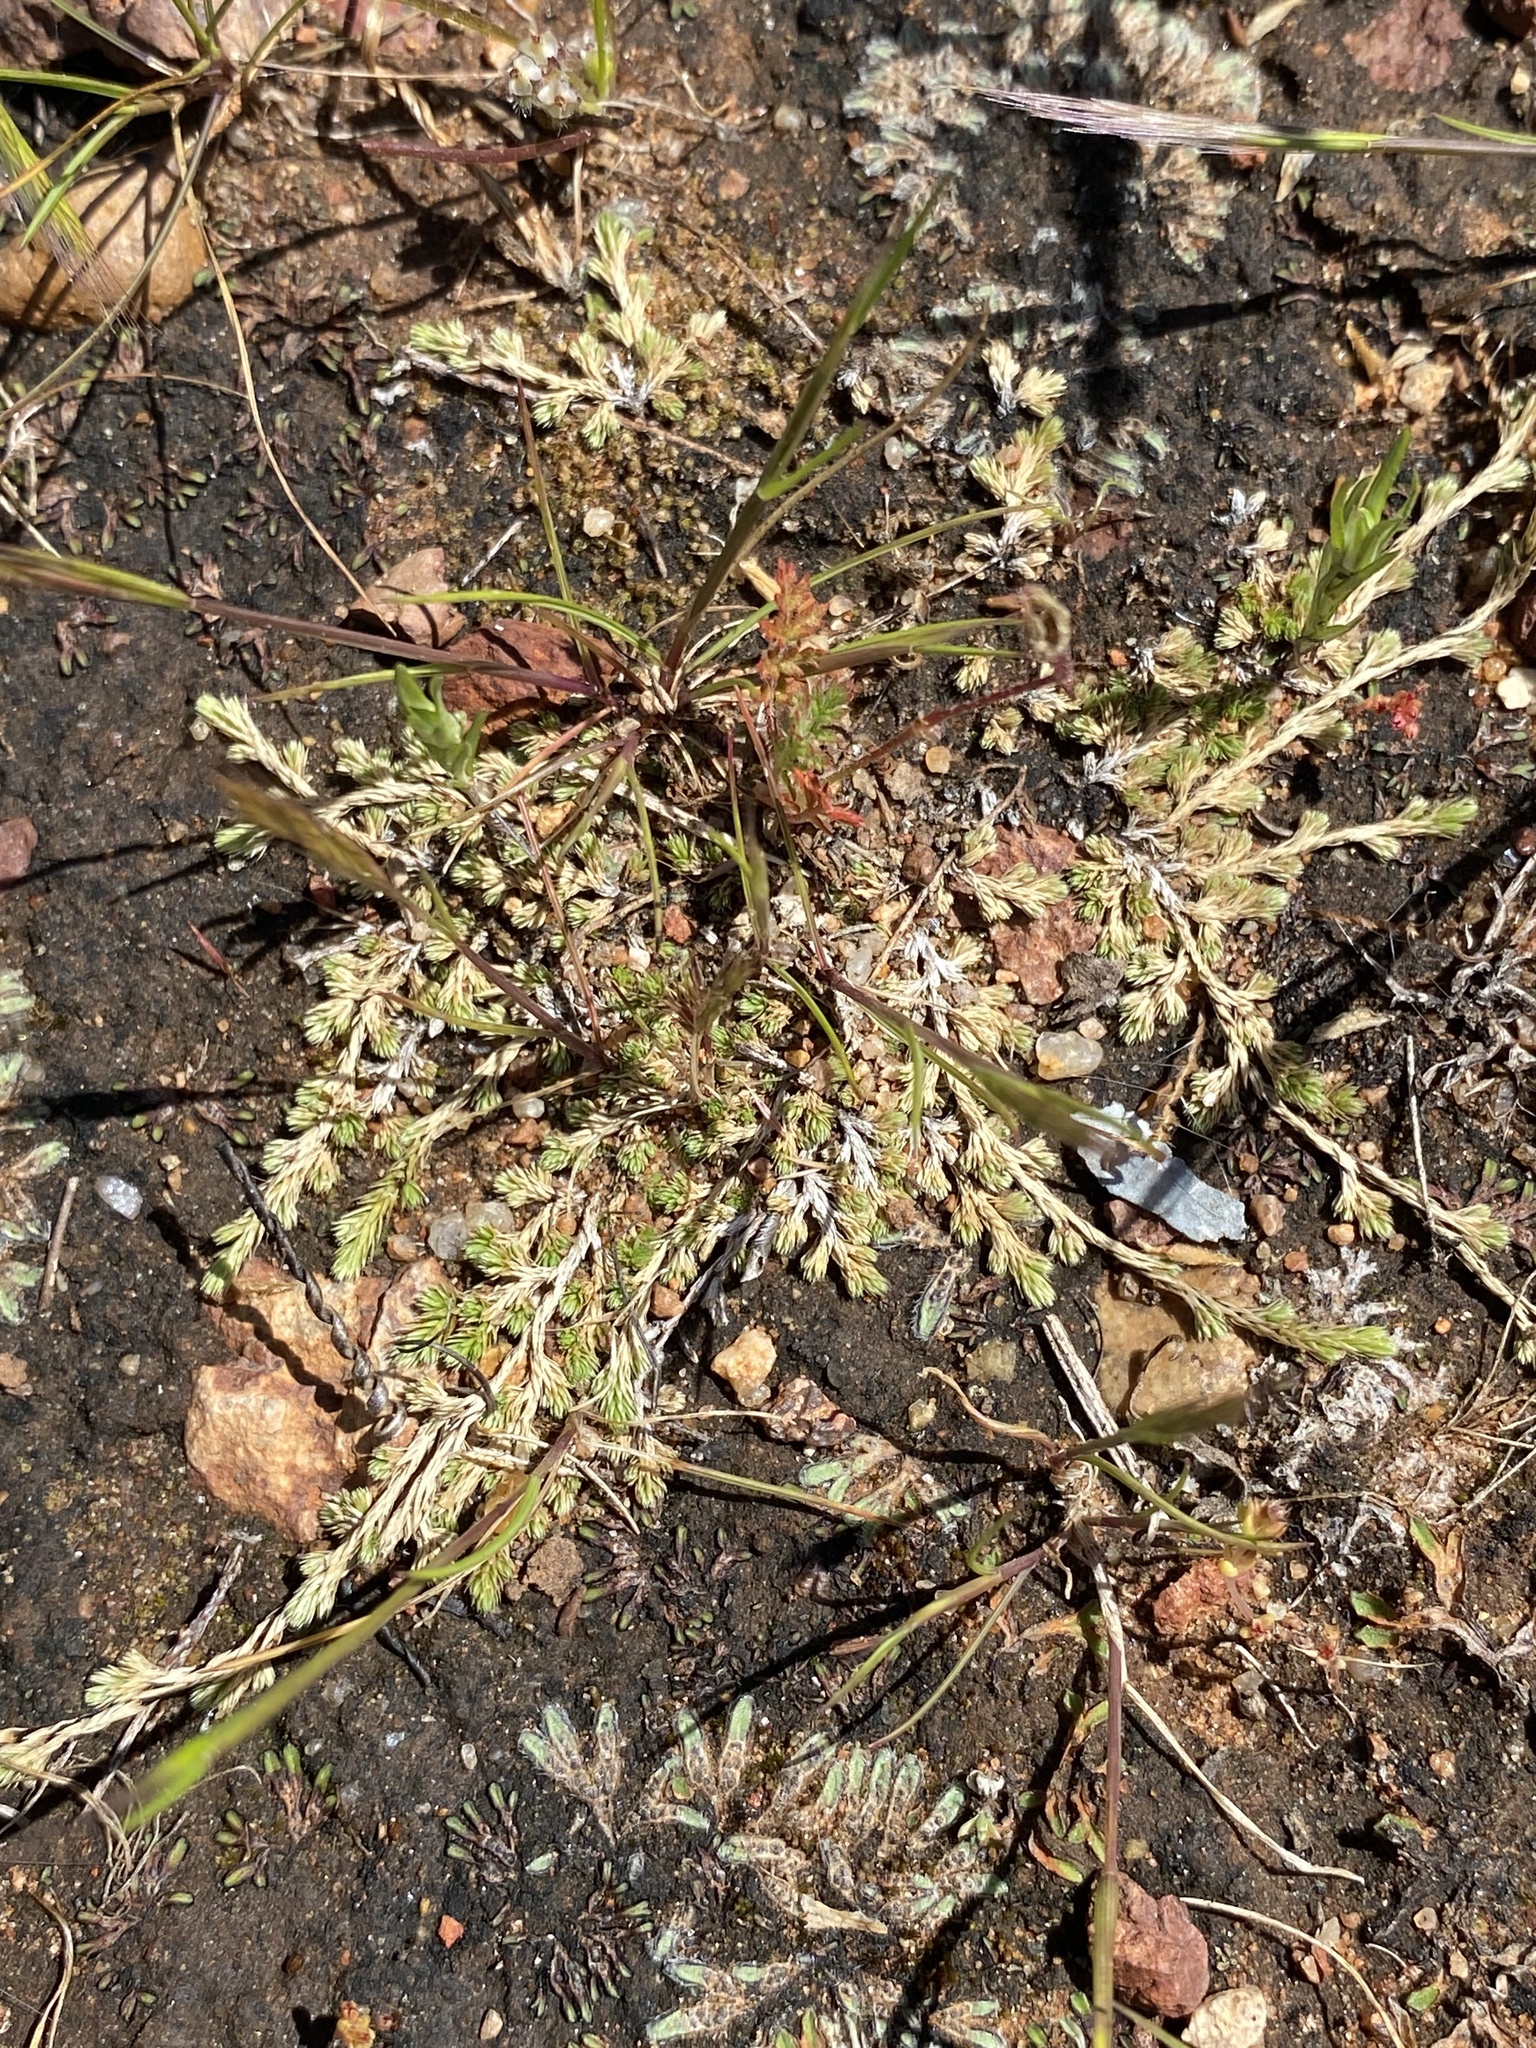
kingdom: Plantae
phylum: Tracheophyta
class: Lycopodiopsida
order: Selaginellales
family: Selaginellaceae
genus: Selaginella
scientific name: Selaginella cinerascens
